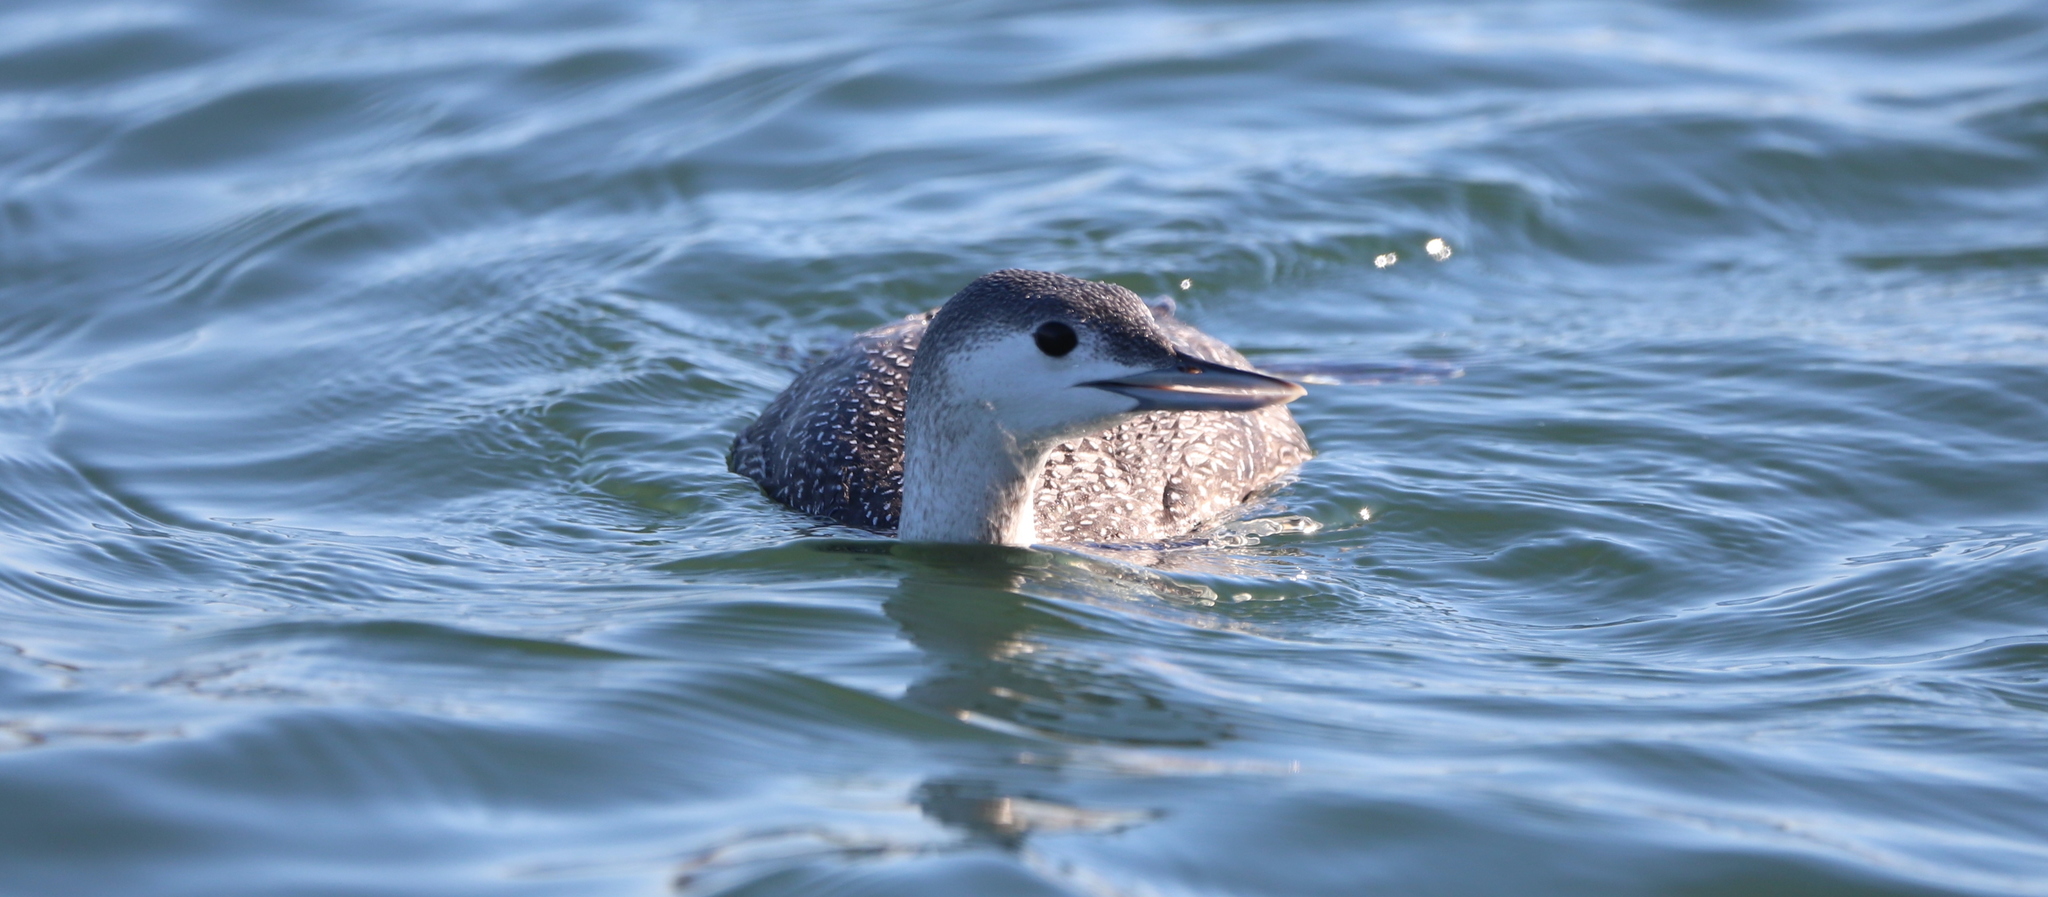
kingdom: Animalia
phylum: Chordata
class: Aves
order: Gaviiformes
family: Gaviidae
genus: Gavia
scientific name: Gavia stellata
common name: Red-throated loon
